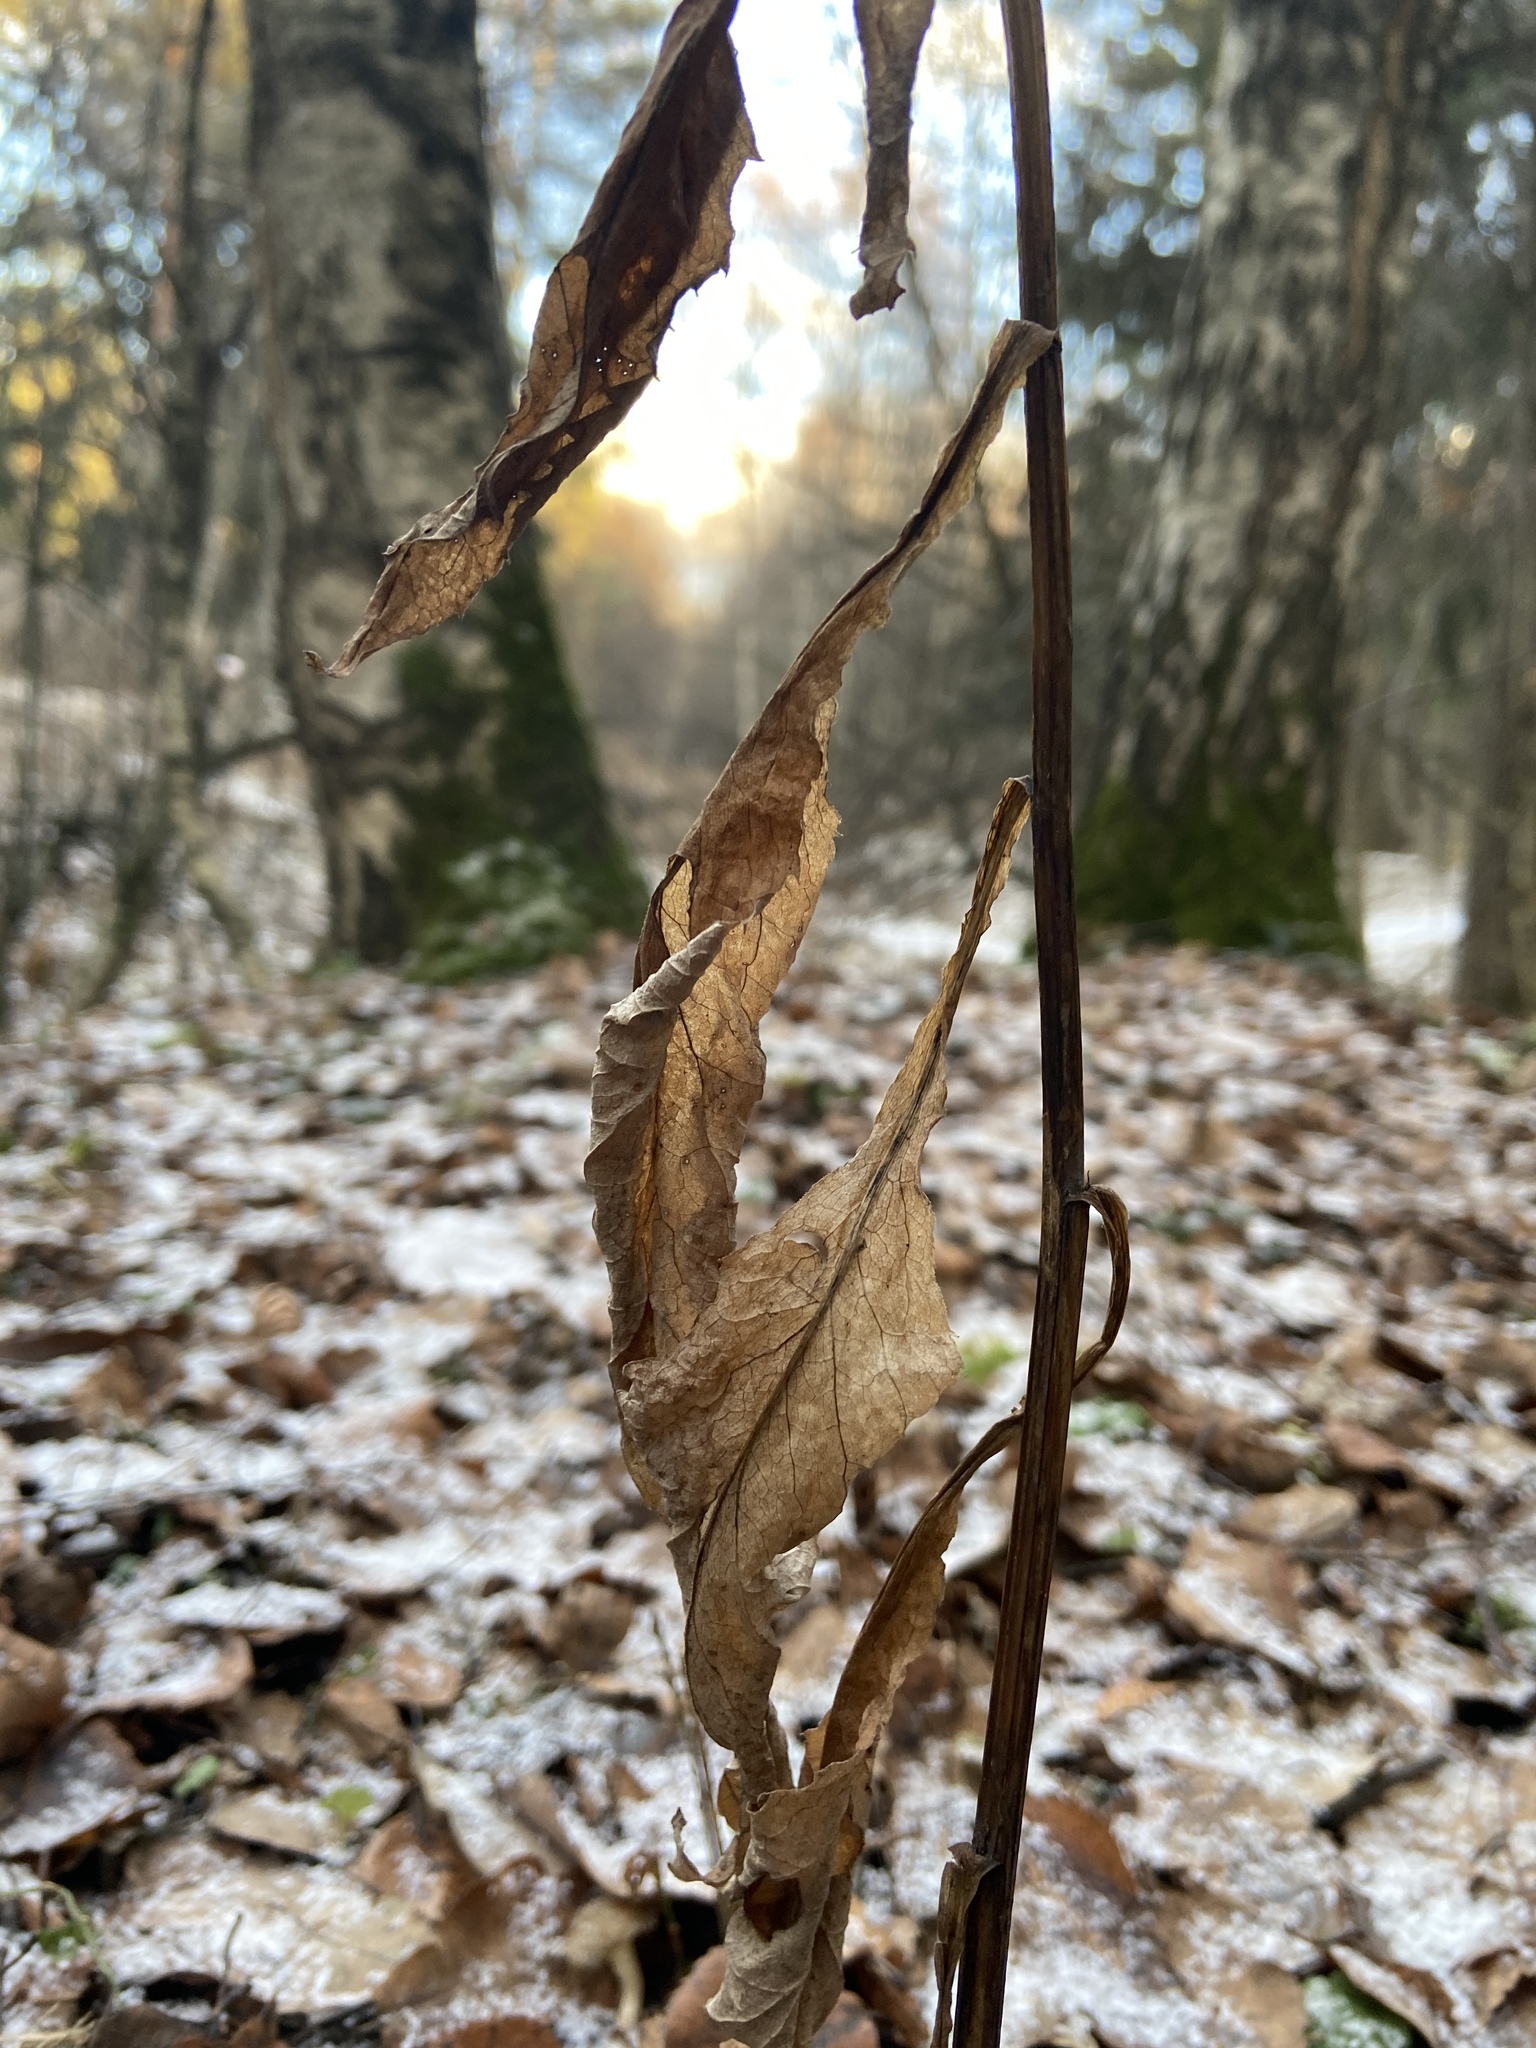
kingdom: Plantae
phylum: Tracheophyta
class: Magnoliopsida
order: Asterales
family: Asteraceae
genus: Solidago
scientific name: Solidago virgaurea
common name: Goldenrod
